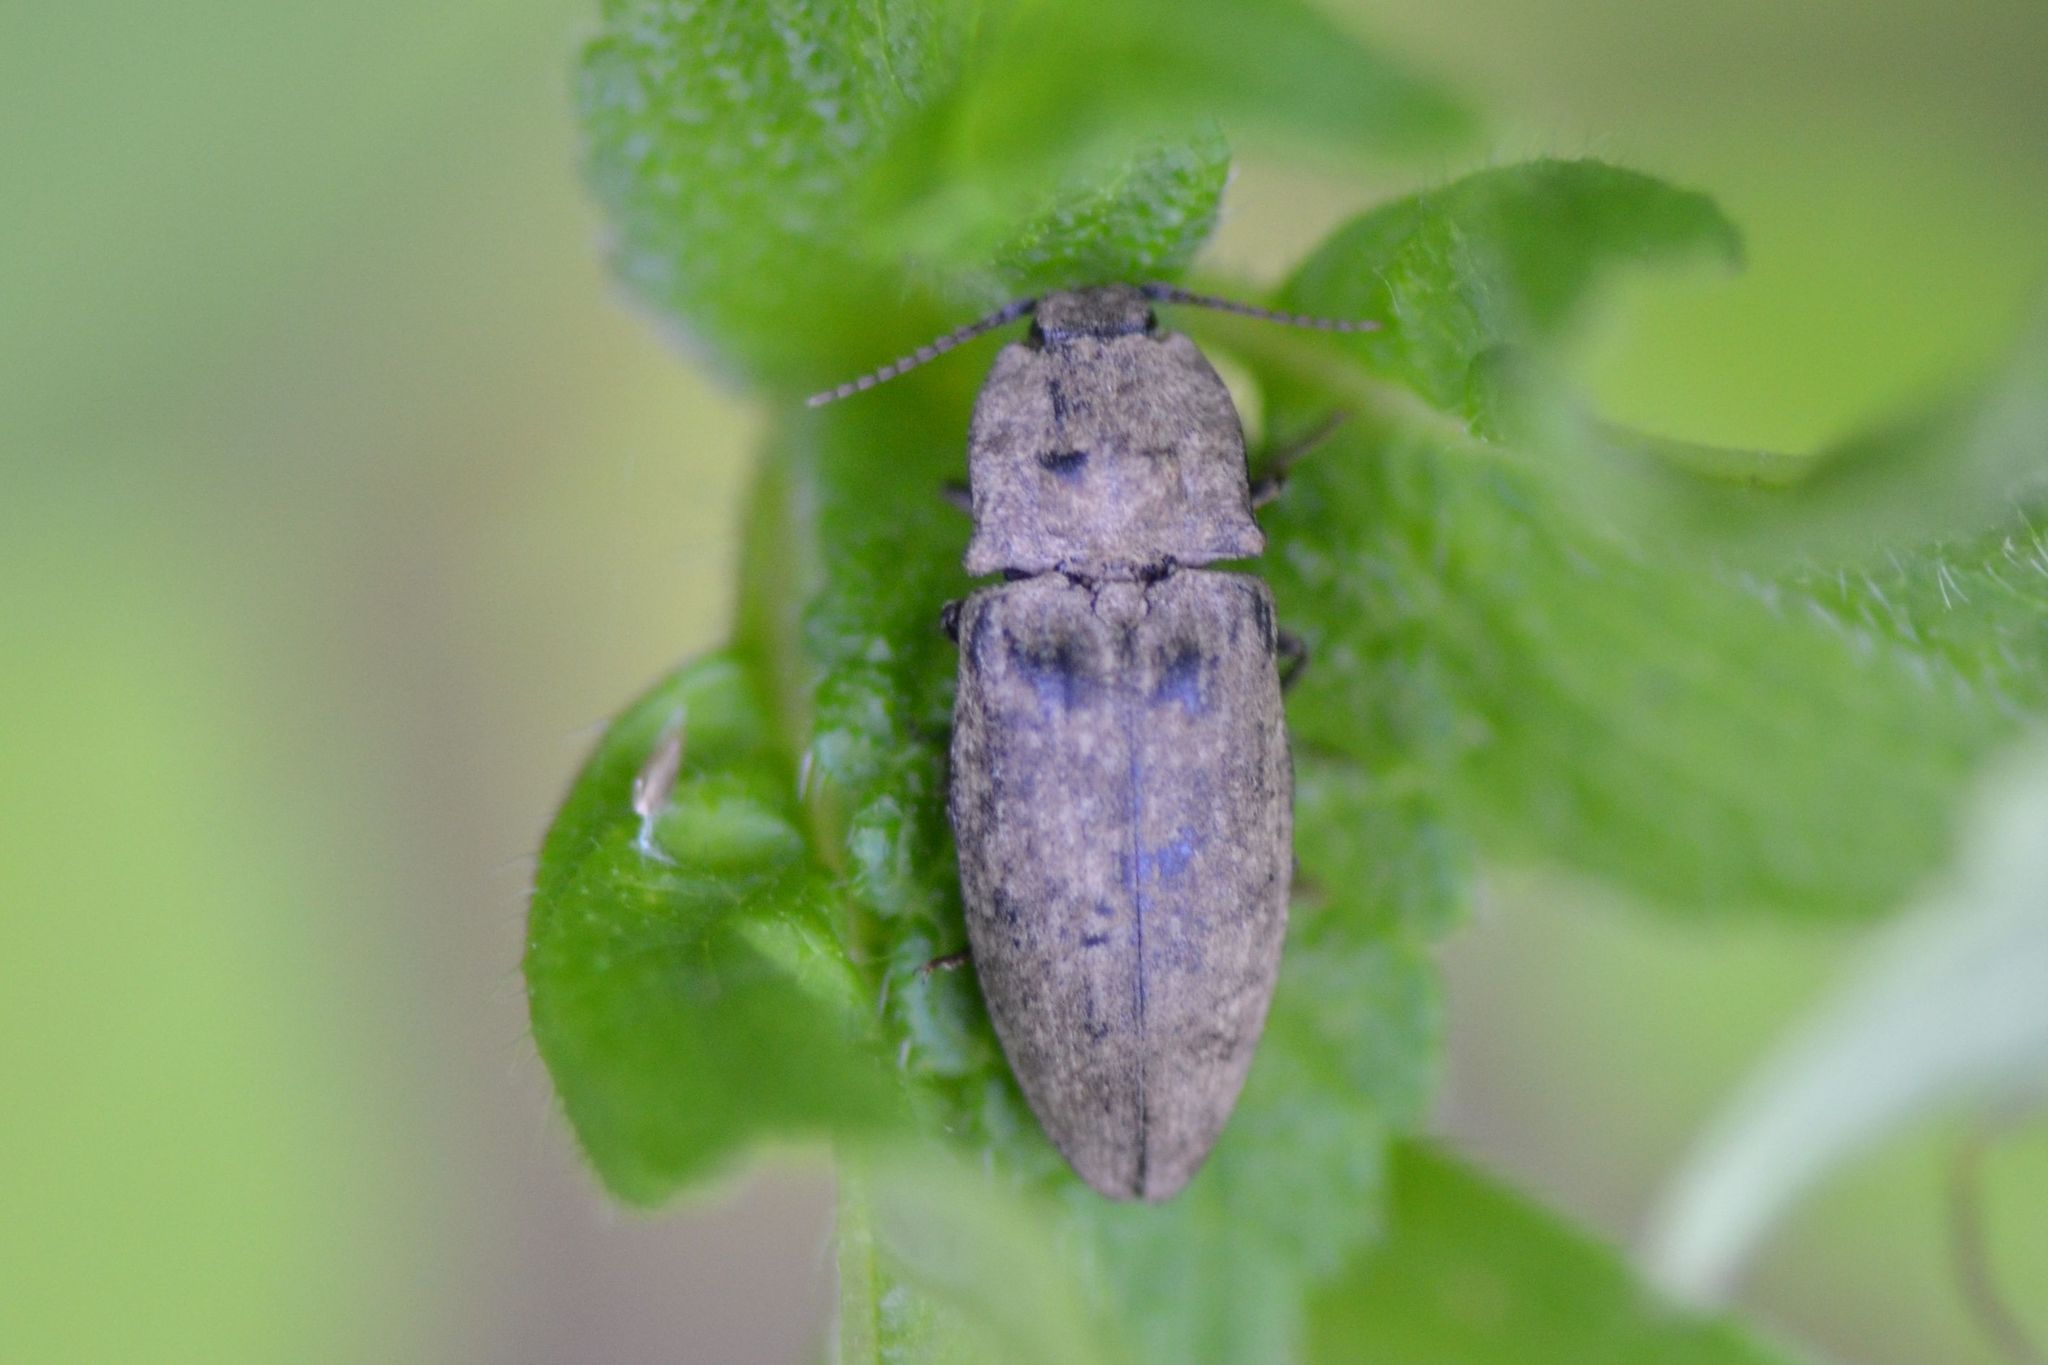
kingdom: Animalia
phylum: Arthropoda
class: Insecta
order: Coleoptera
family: Elateridae
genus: Agrypnus
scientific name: Agrypnus murinus
